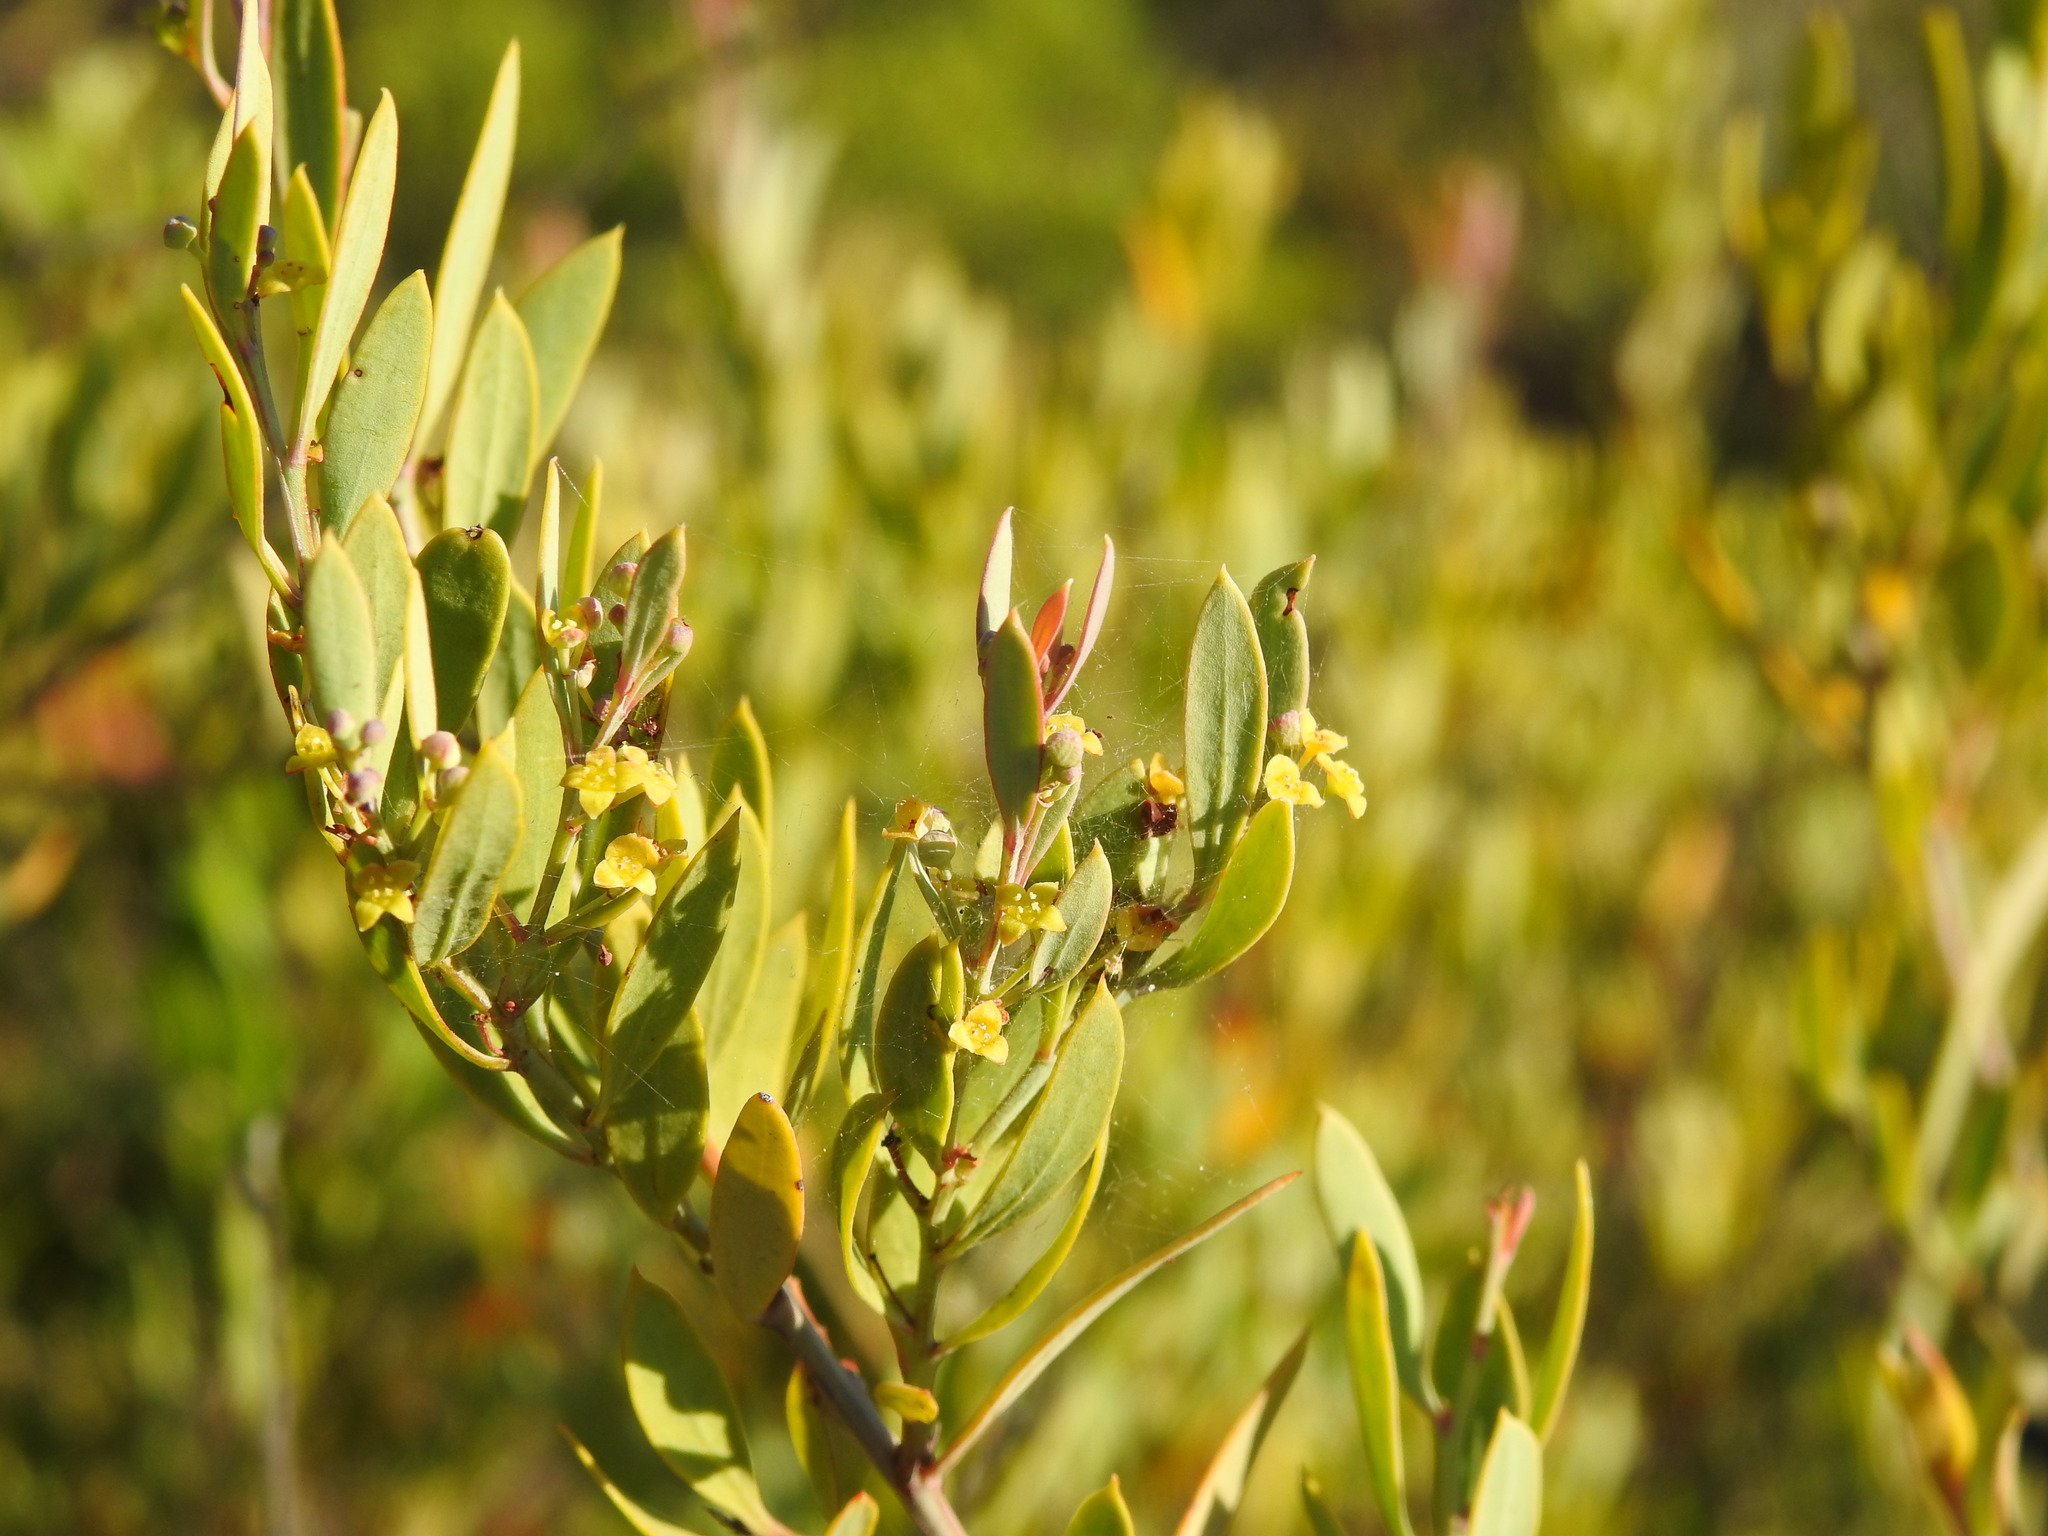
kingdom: Plantae
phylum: Tracheophyta
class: Magnoliopsida
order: Santalales
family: Santalaceae
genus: Osyris
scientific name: Osyris lanceolata
